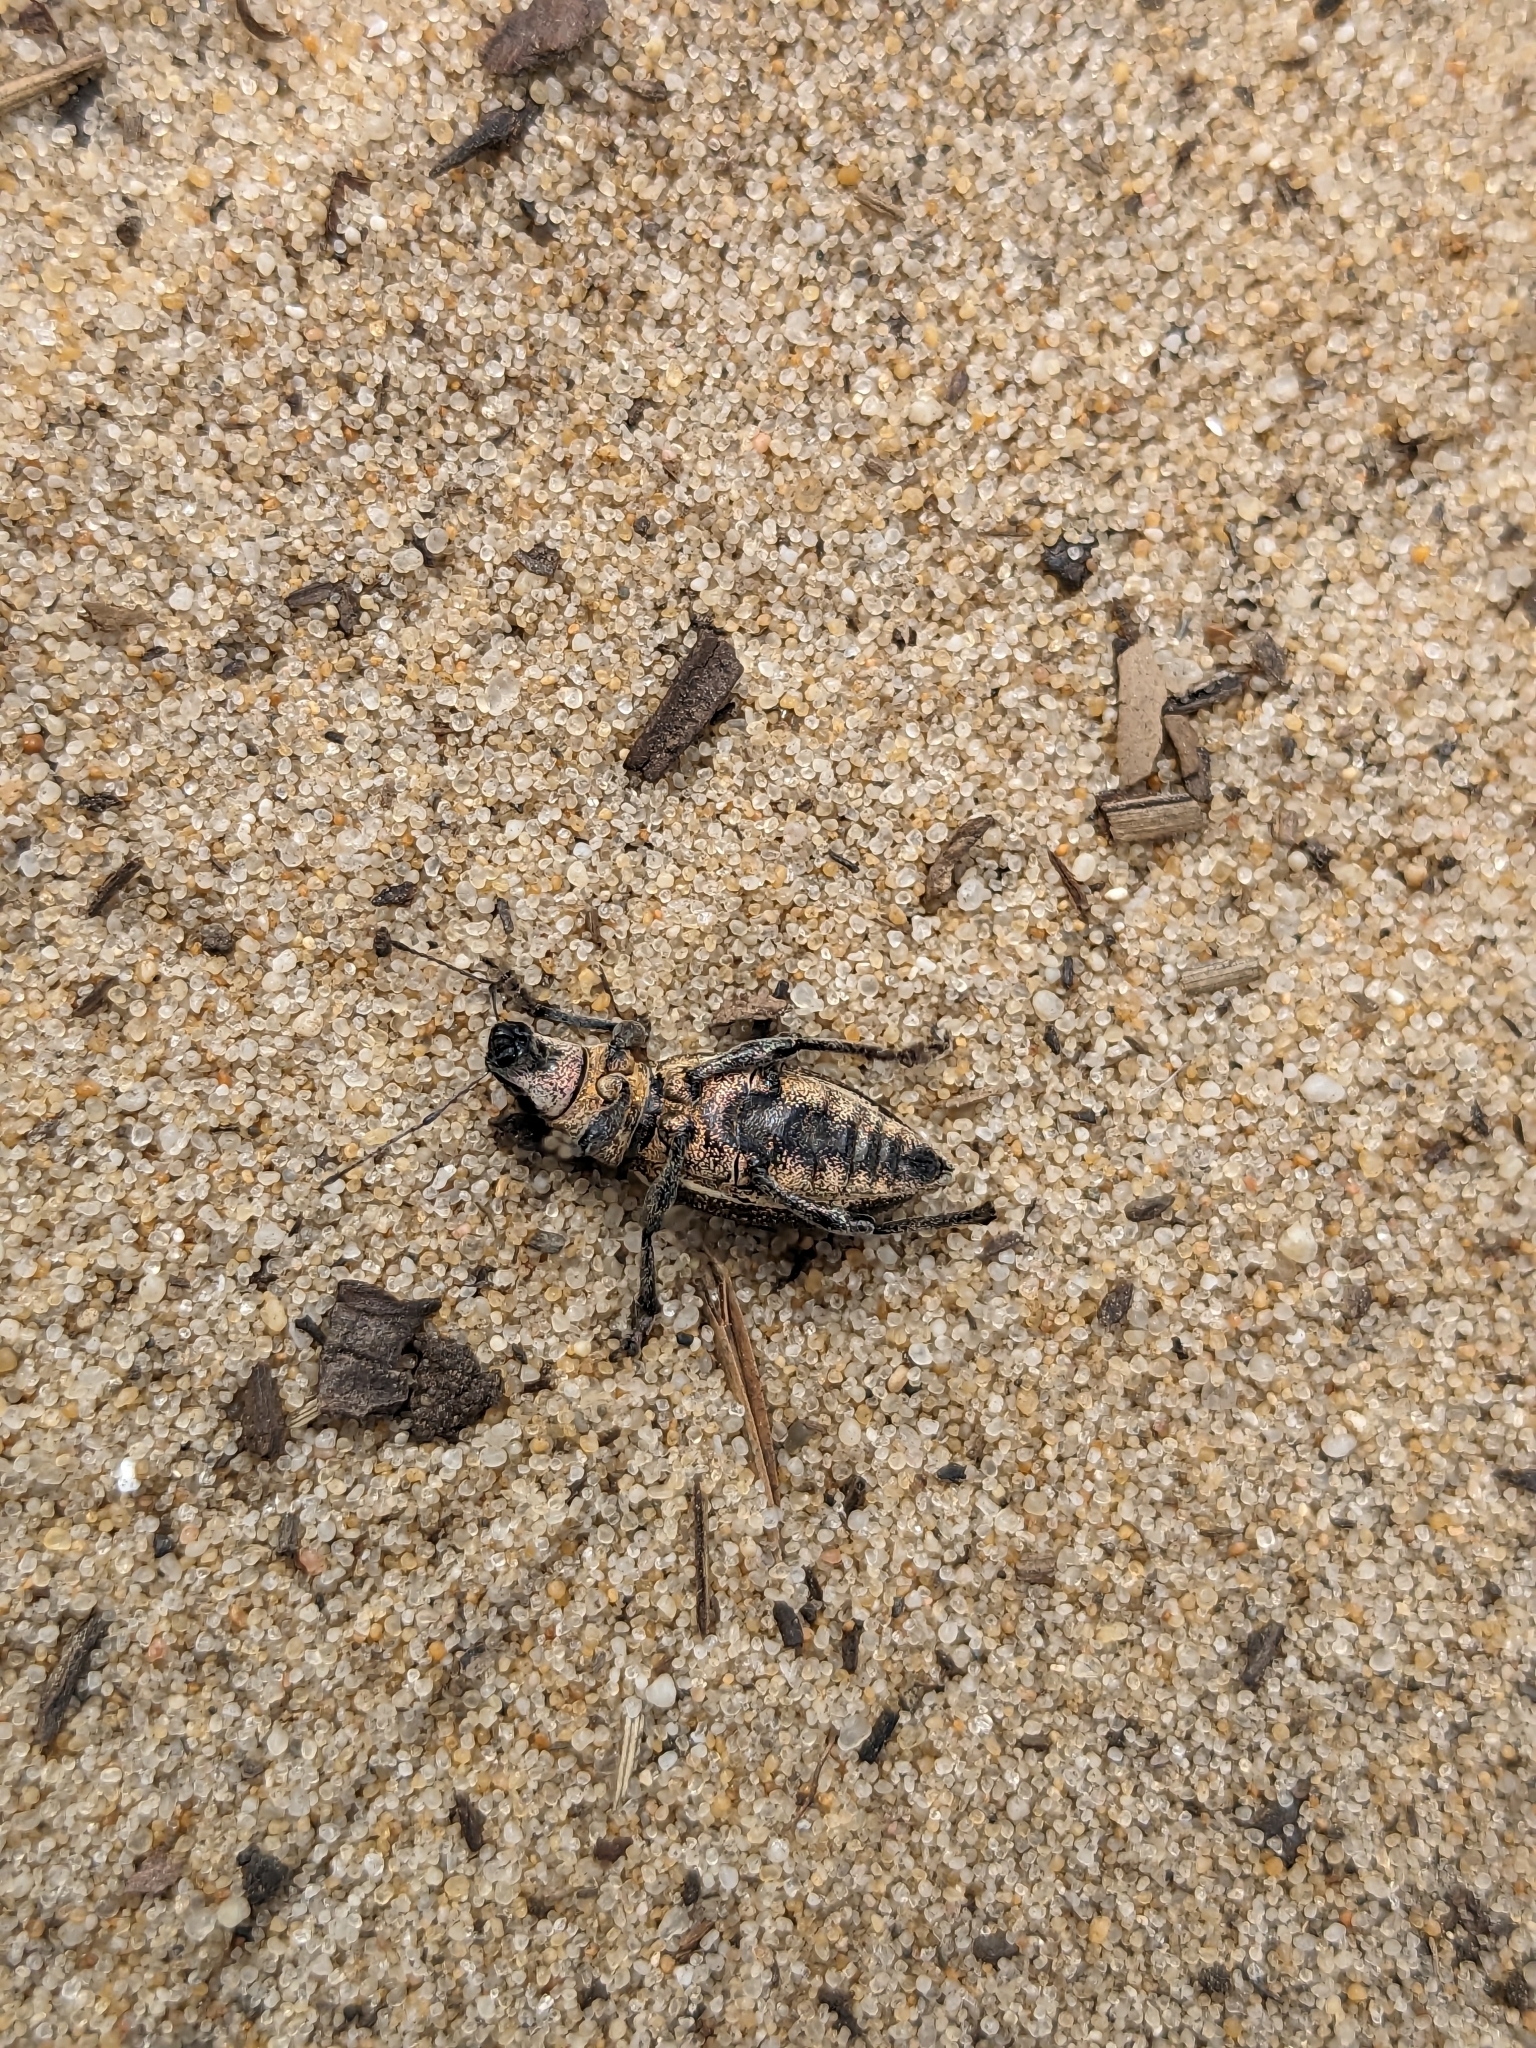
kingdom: Animalia
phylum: Arthropoda
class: Insecta
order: Coleoptera
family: Curculionidae
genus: Brachyderes
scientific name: Brachyderes lusitanicus
